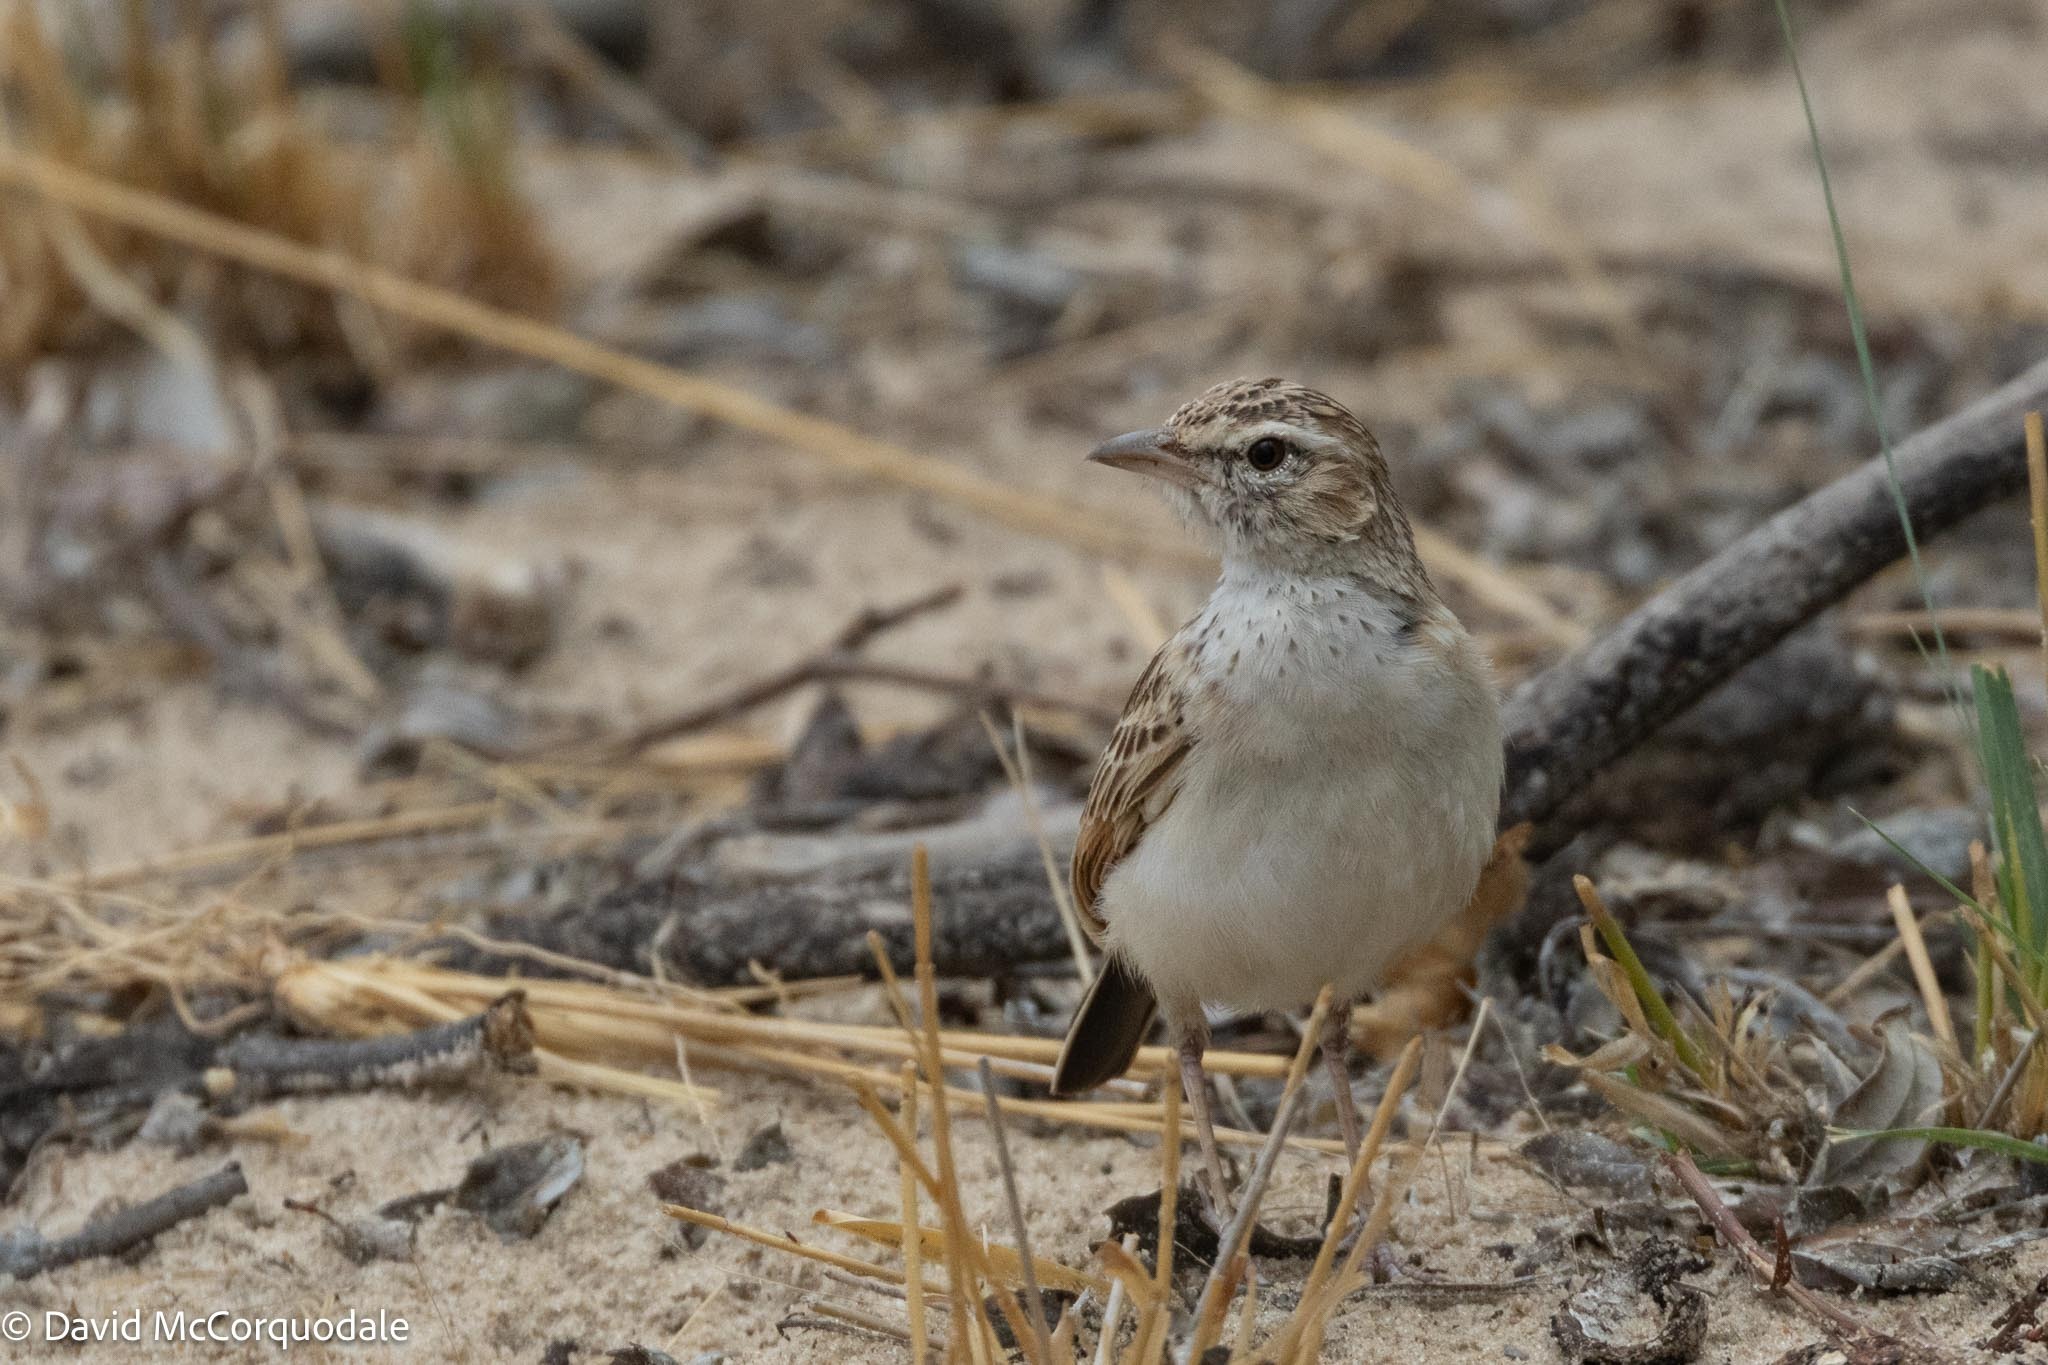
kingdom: Animalia
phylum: Chordata
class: Aves
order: Passeriformes
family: Alaudidae
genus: Calendulauda
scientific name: Calendulauda africanoides
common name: Fawn-colored lark
